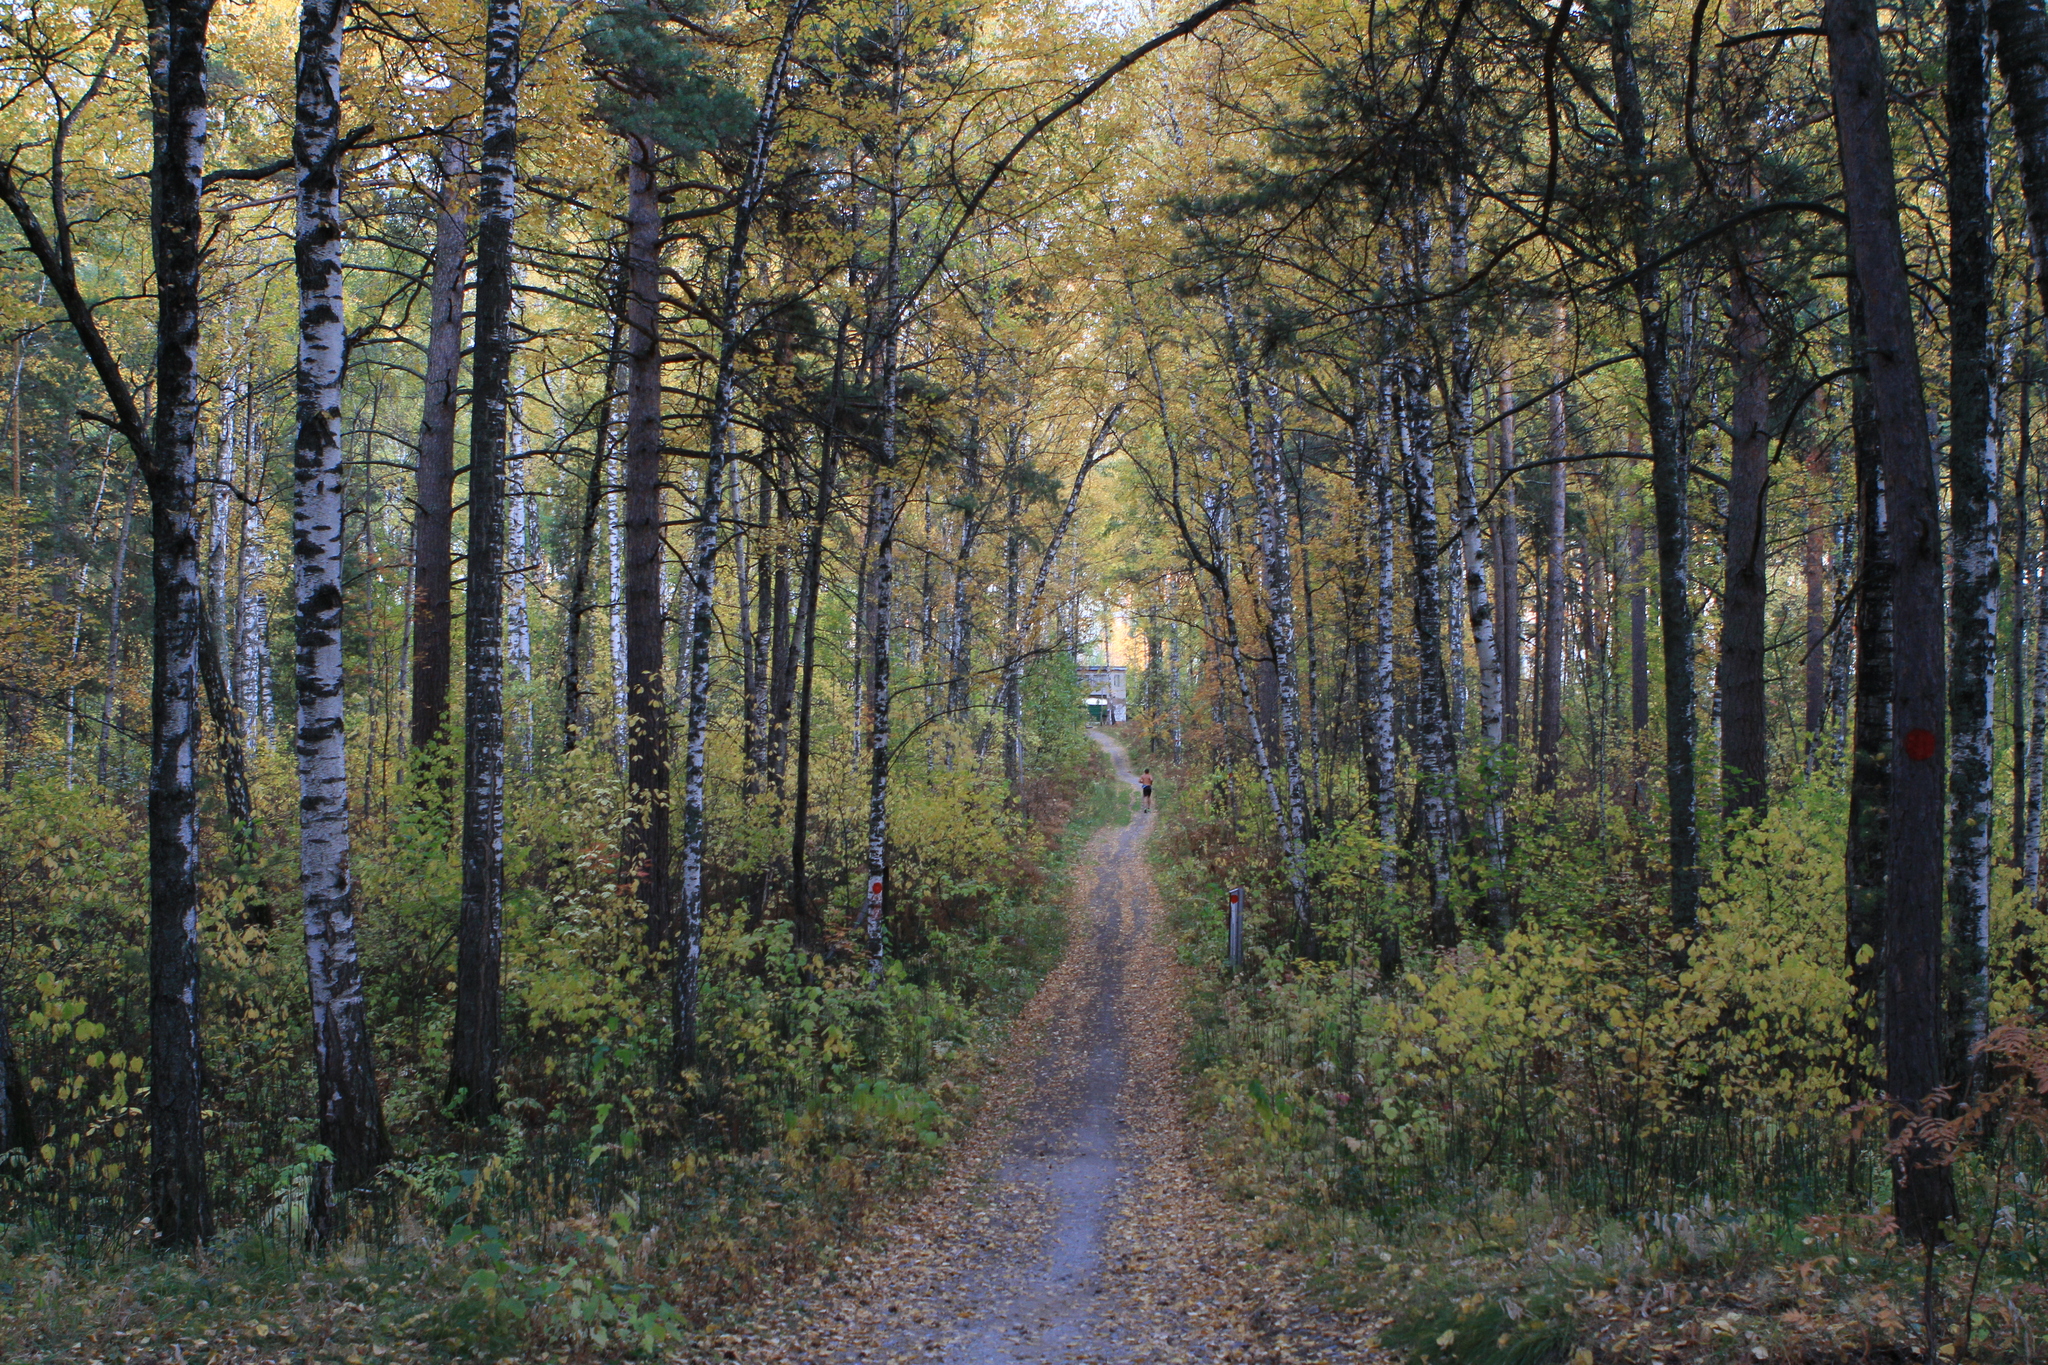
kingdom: Plantae
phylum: Tracheophyta
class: Pinopsida
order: Pinales
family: Pinaceae
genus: Pinus
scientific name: Pinus sylvestris
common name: Scots pine
